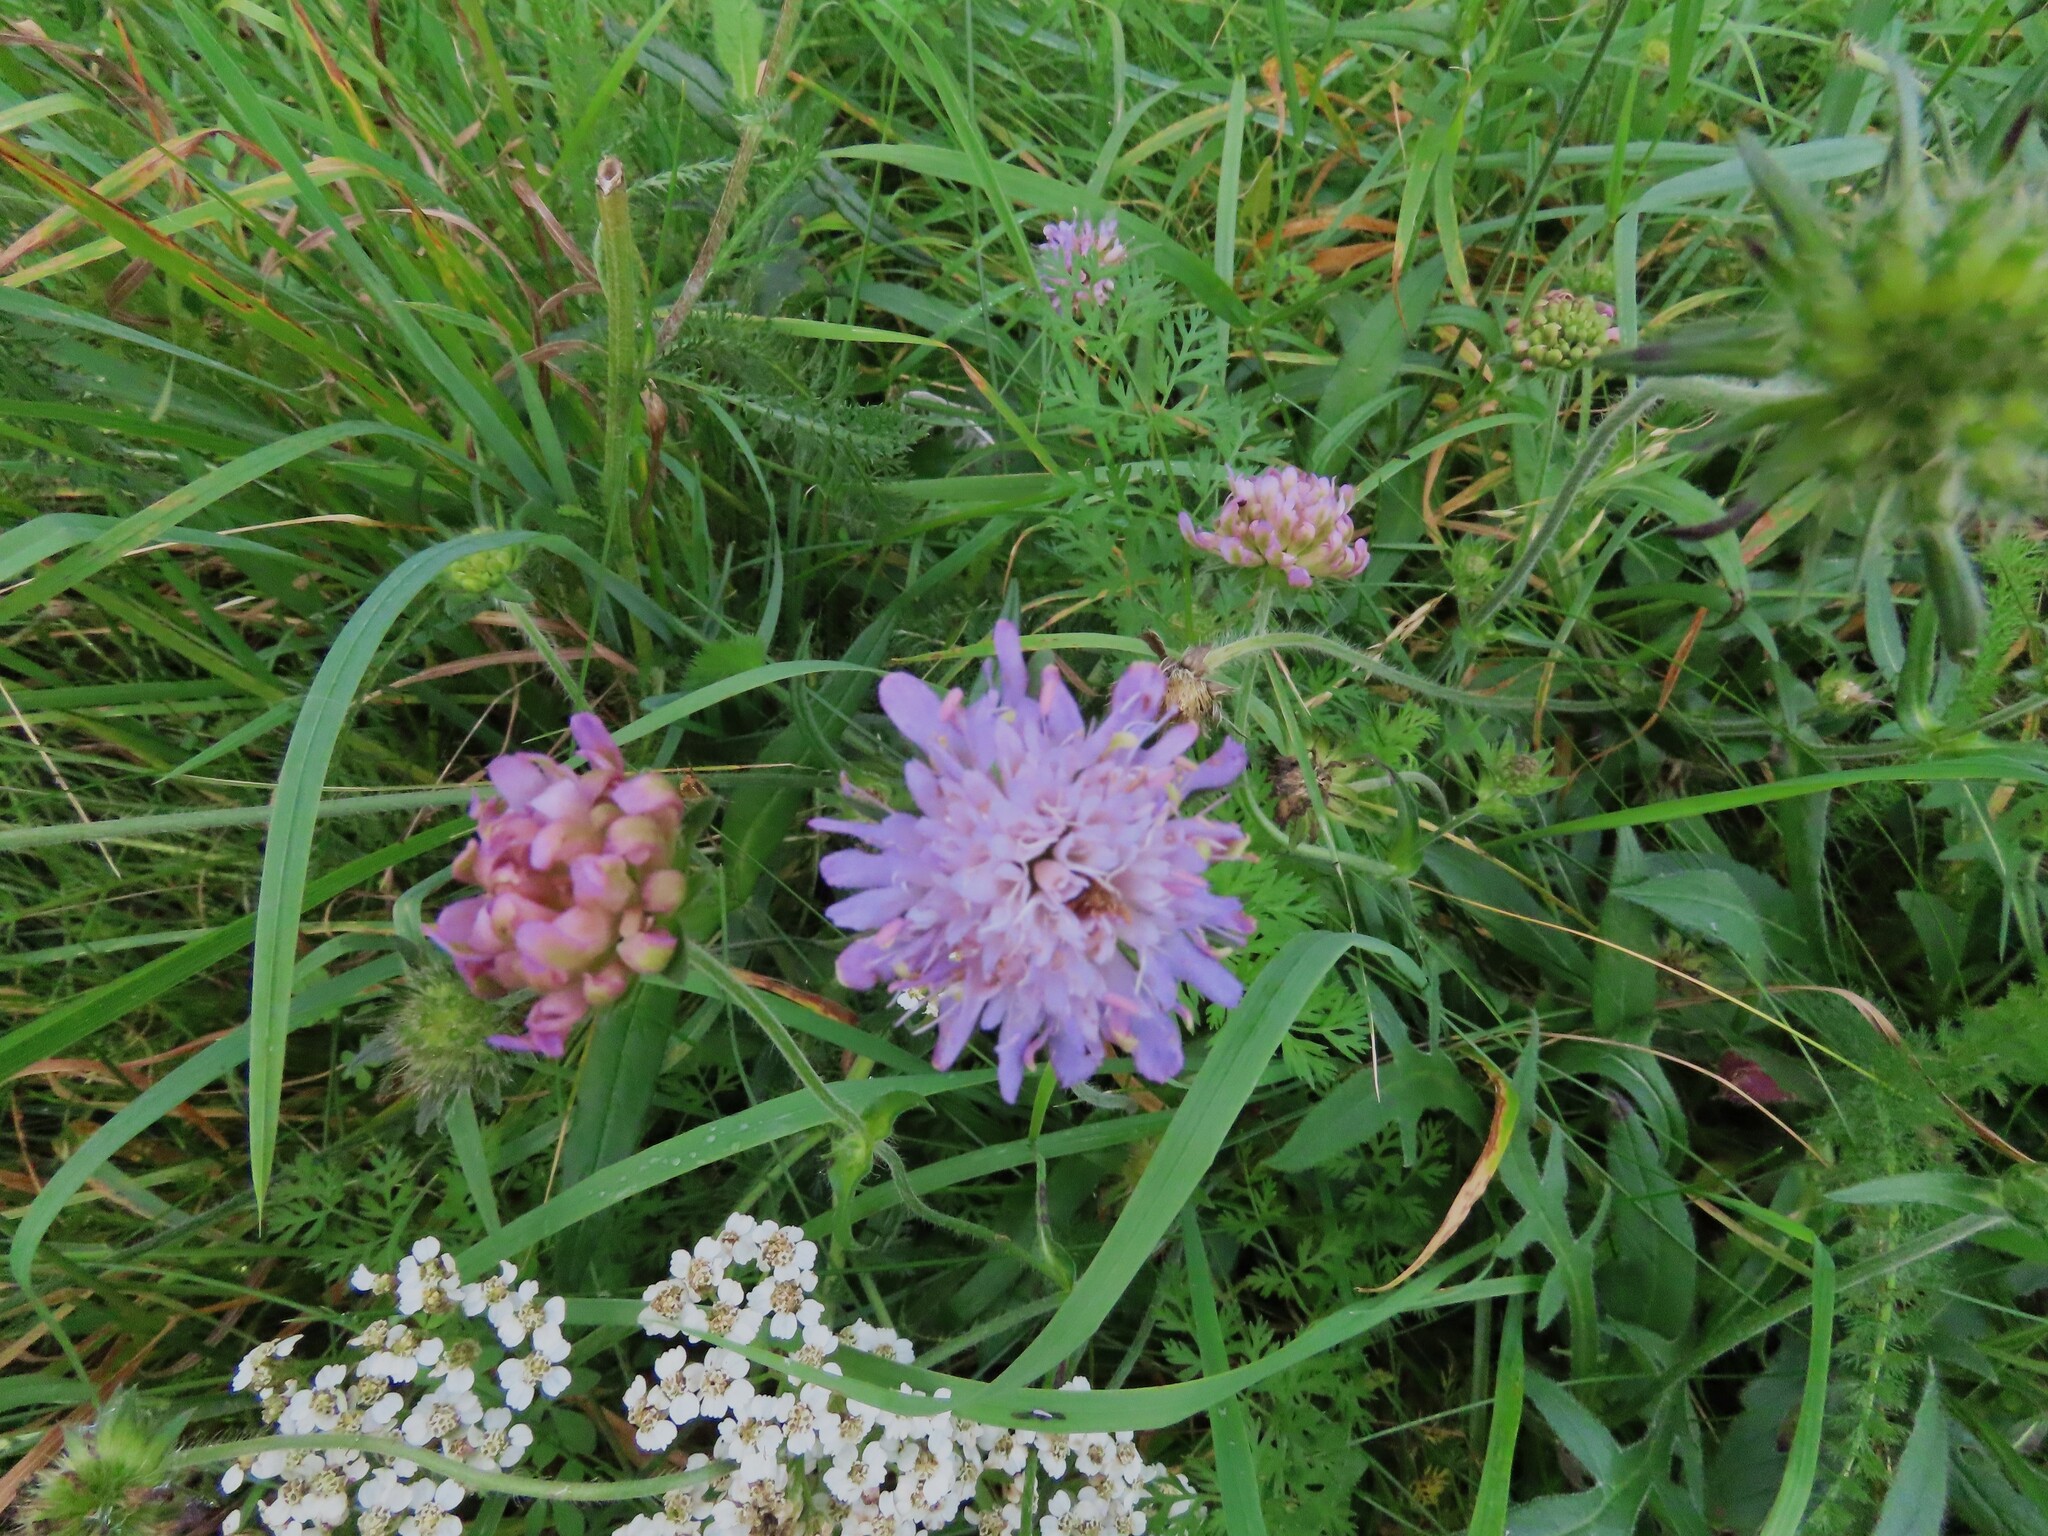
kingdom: Plantae
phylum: Tracheophyta
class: Magnoliopsida
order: Dipsacales
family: Caprifoliaceae
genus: Knautia
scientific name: Knautia arvensis
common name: Field scabiosa
